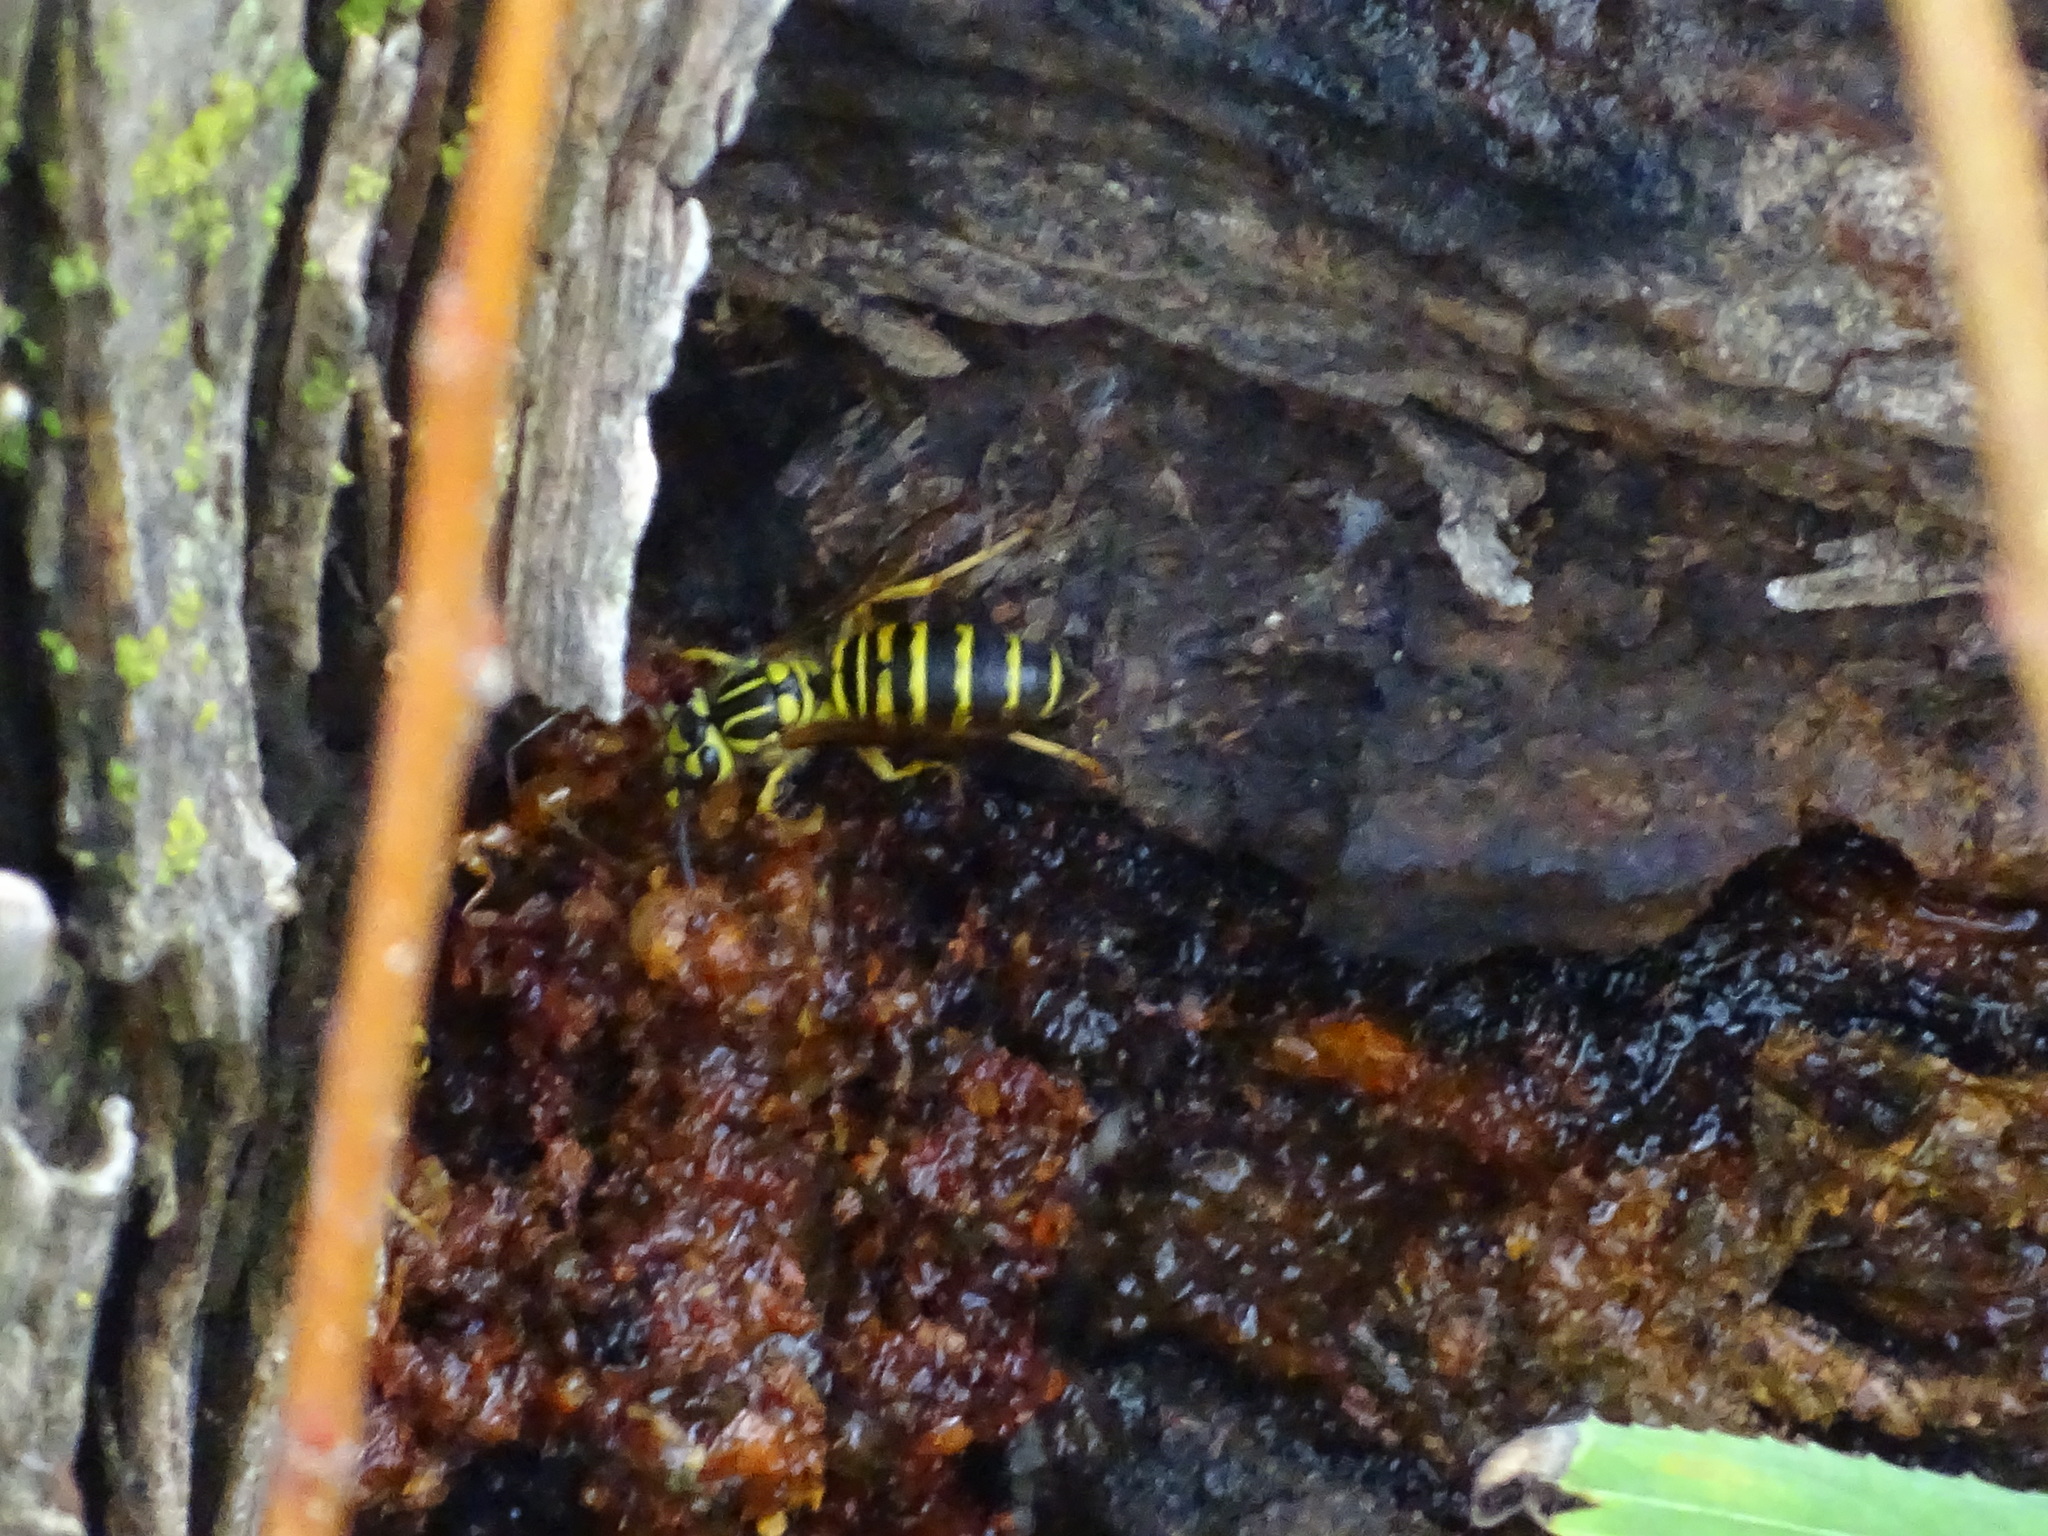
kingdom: Animalia
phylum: Arthropoda
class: Insecta
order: Hymenoptera
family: Vespidae
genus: Vespula
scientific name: Vespula squamosa
